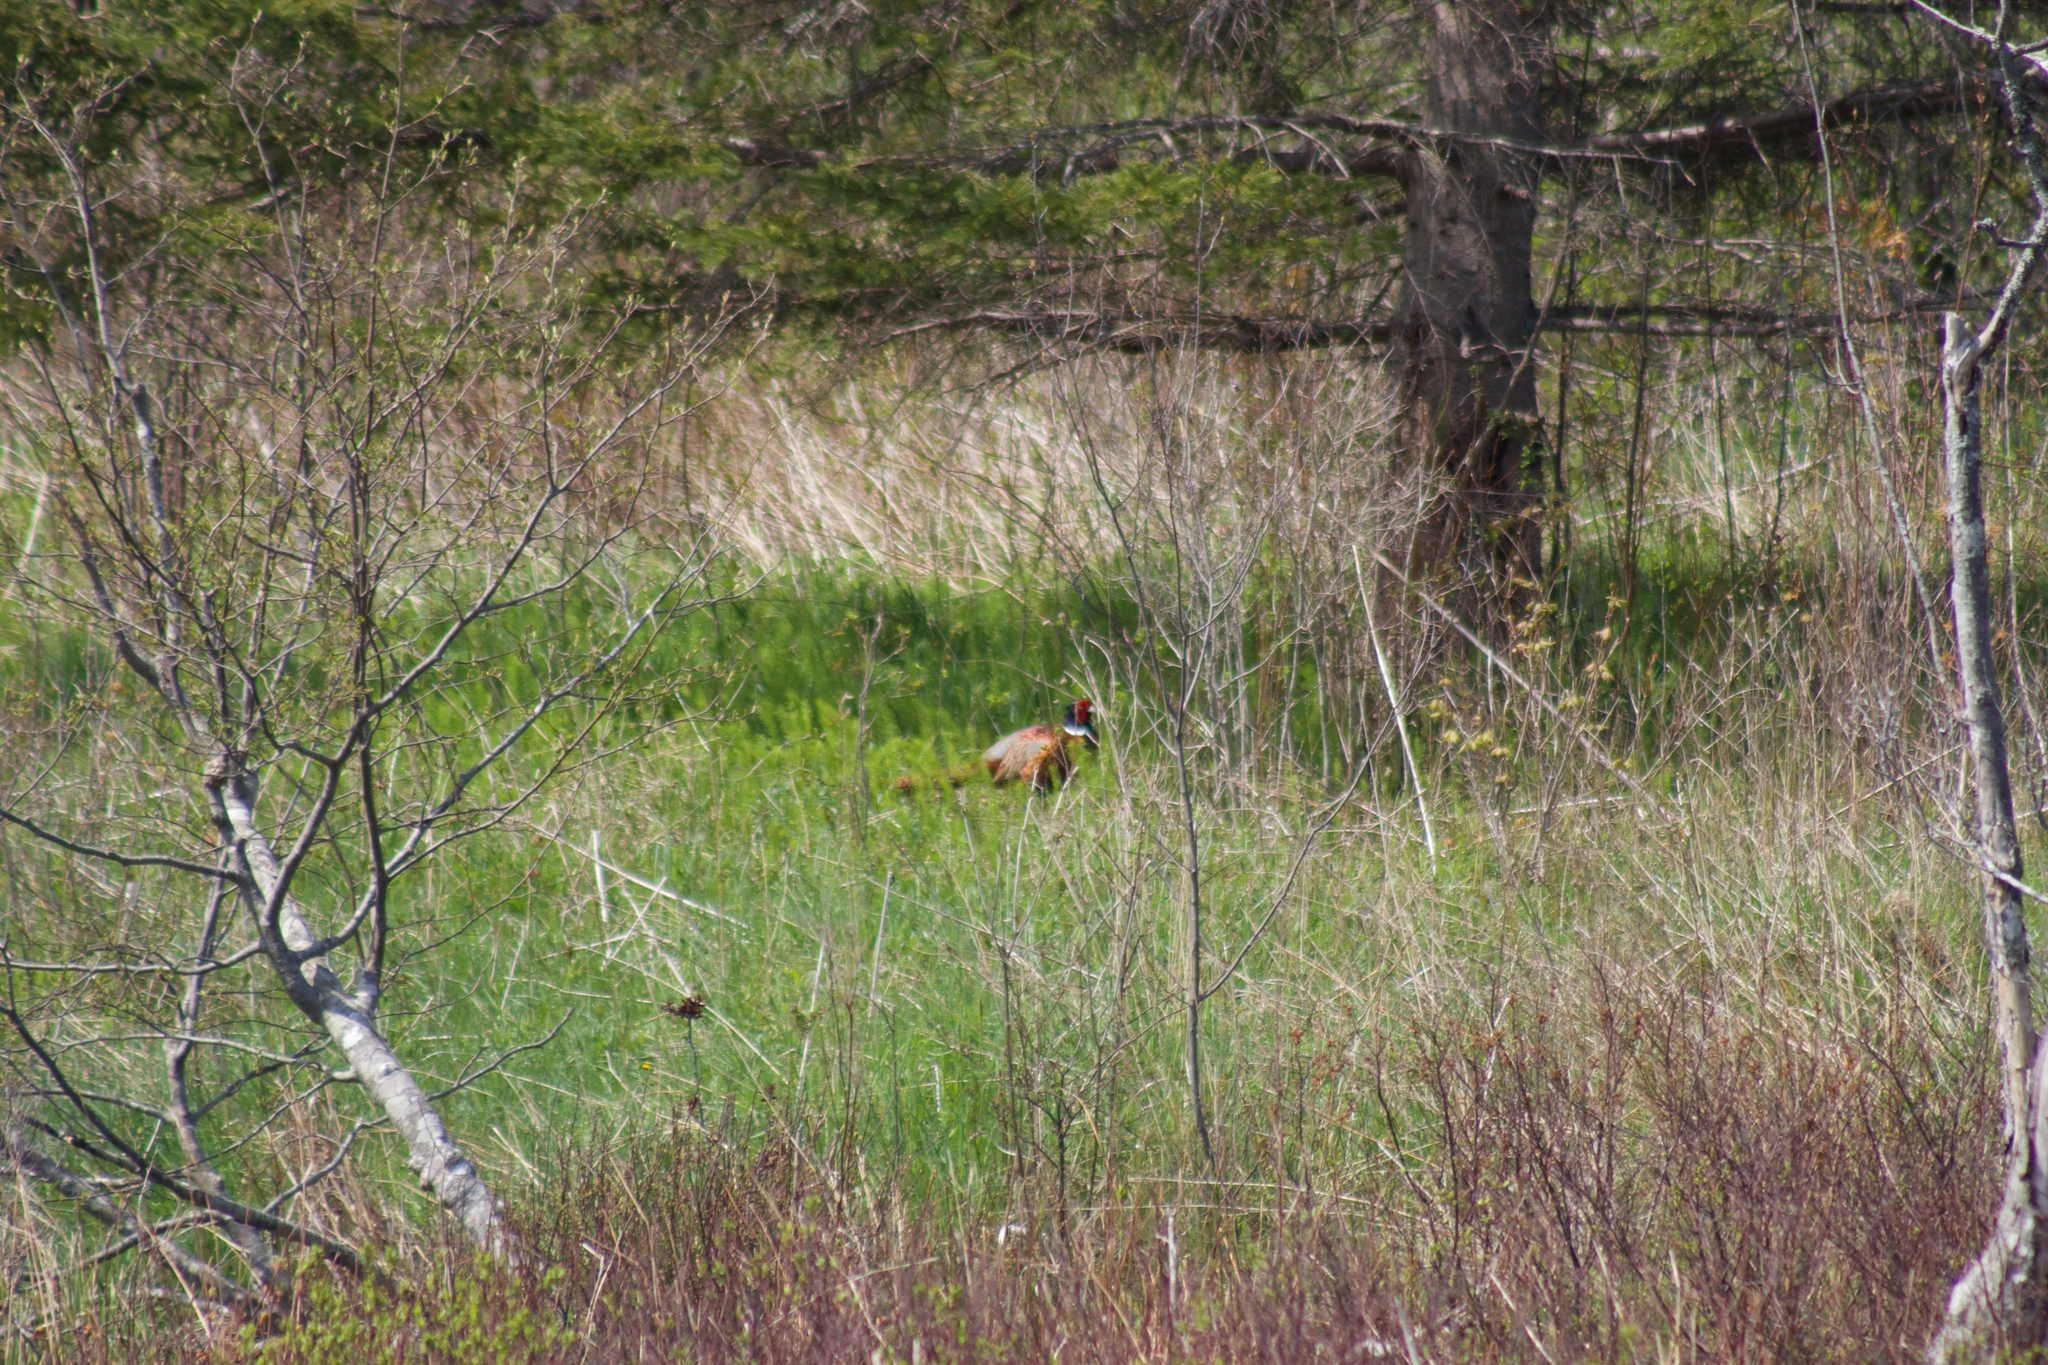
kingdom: Animalia
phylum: Chordata
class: Aves
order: Galliformes
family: Phasianidae
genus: Phasianus
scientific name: Phasianus colchicus
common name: Common pheasant
